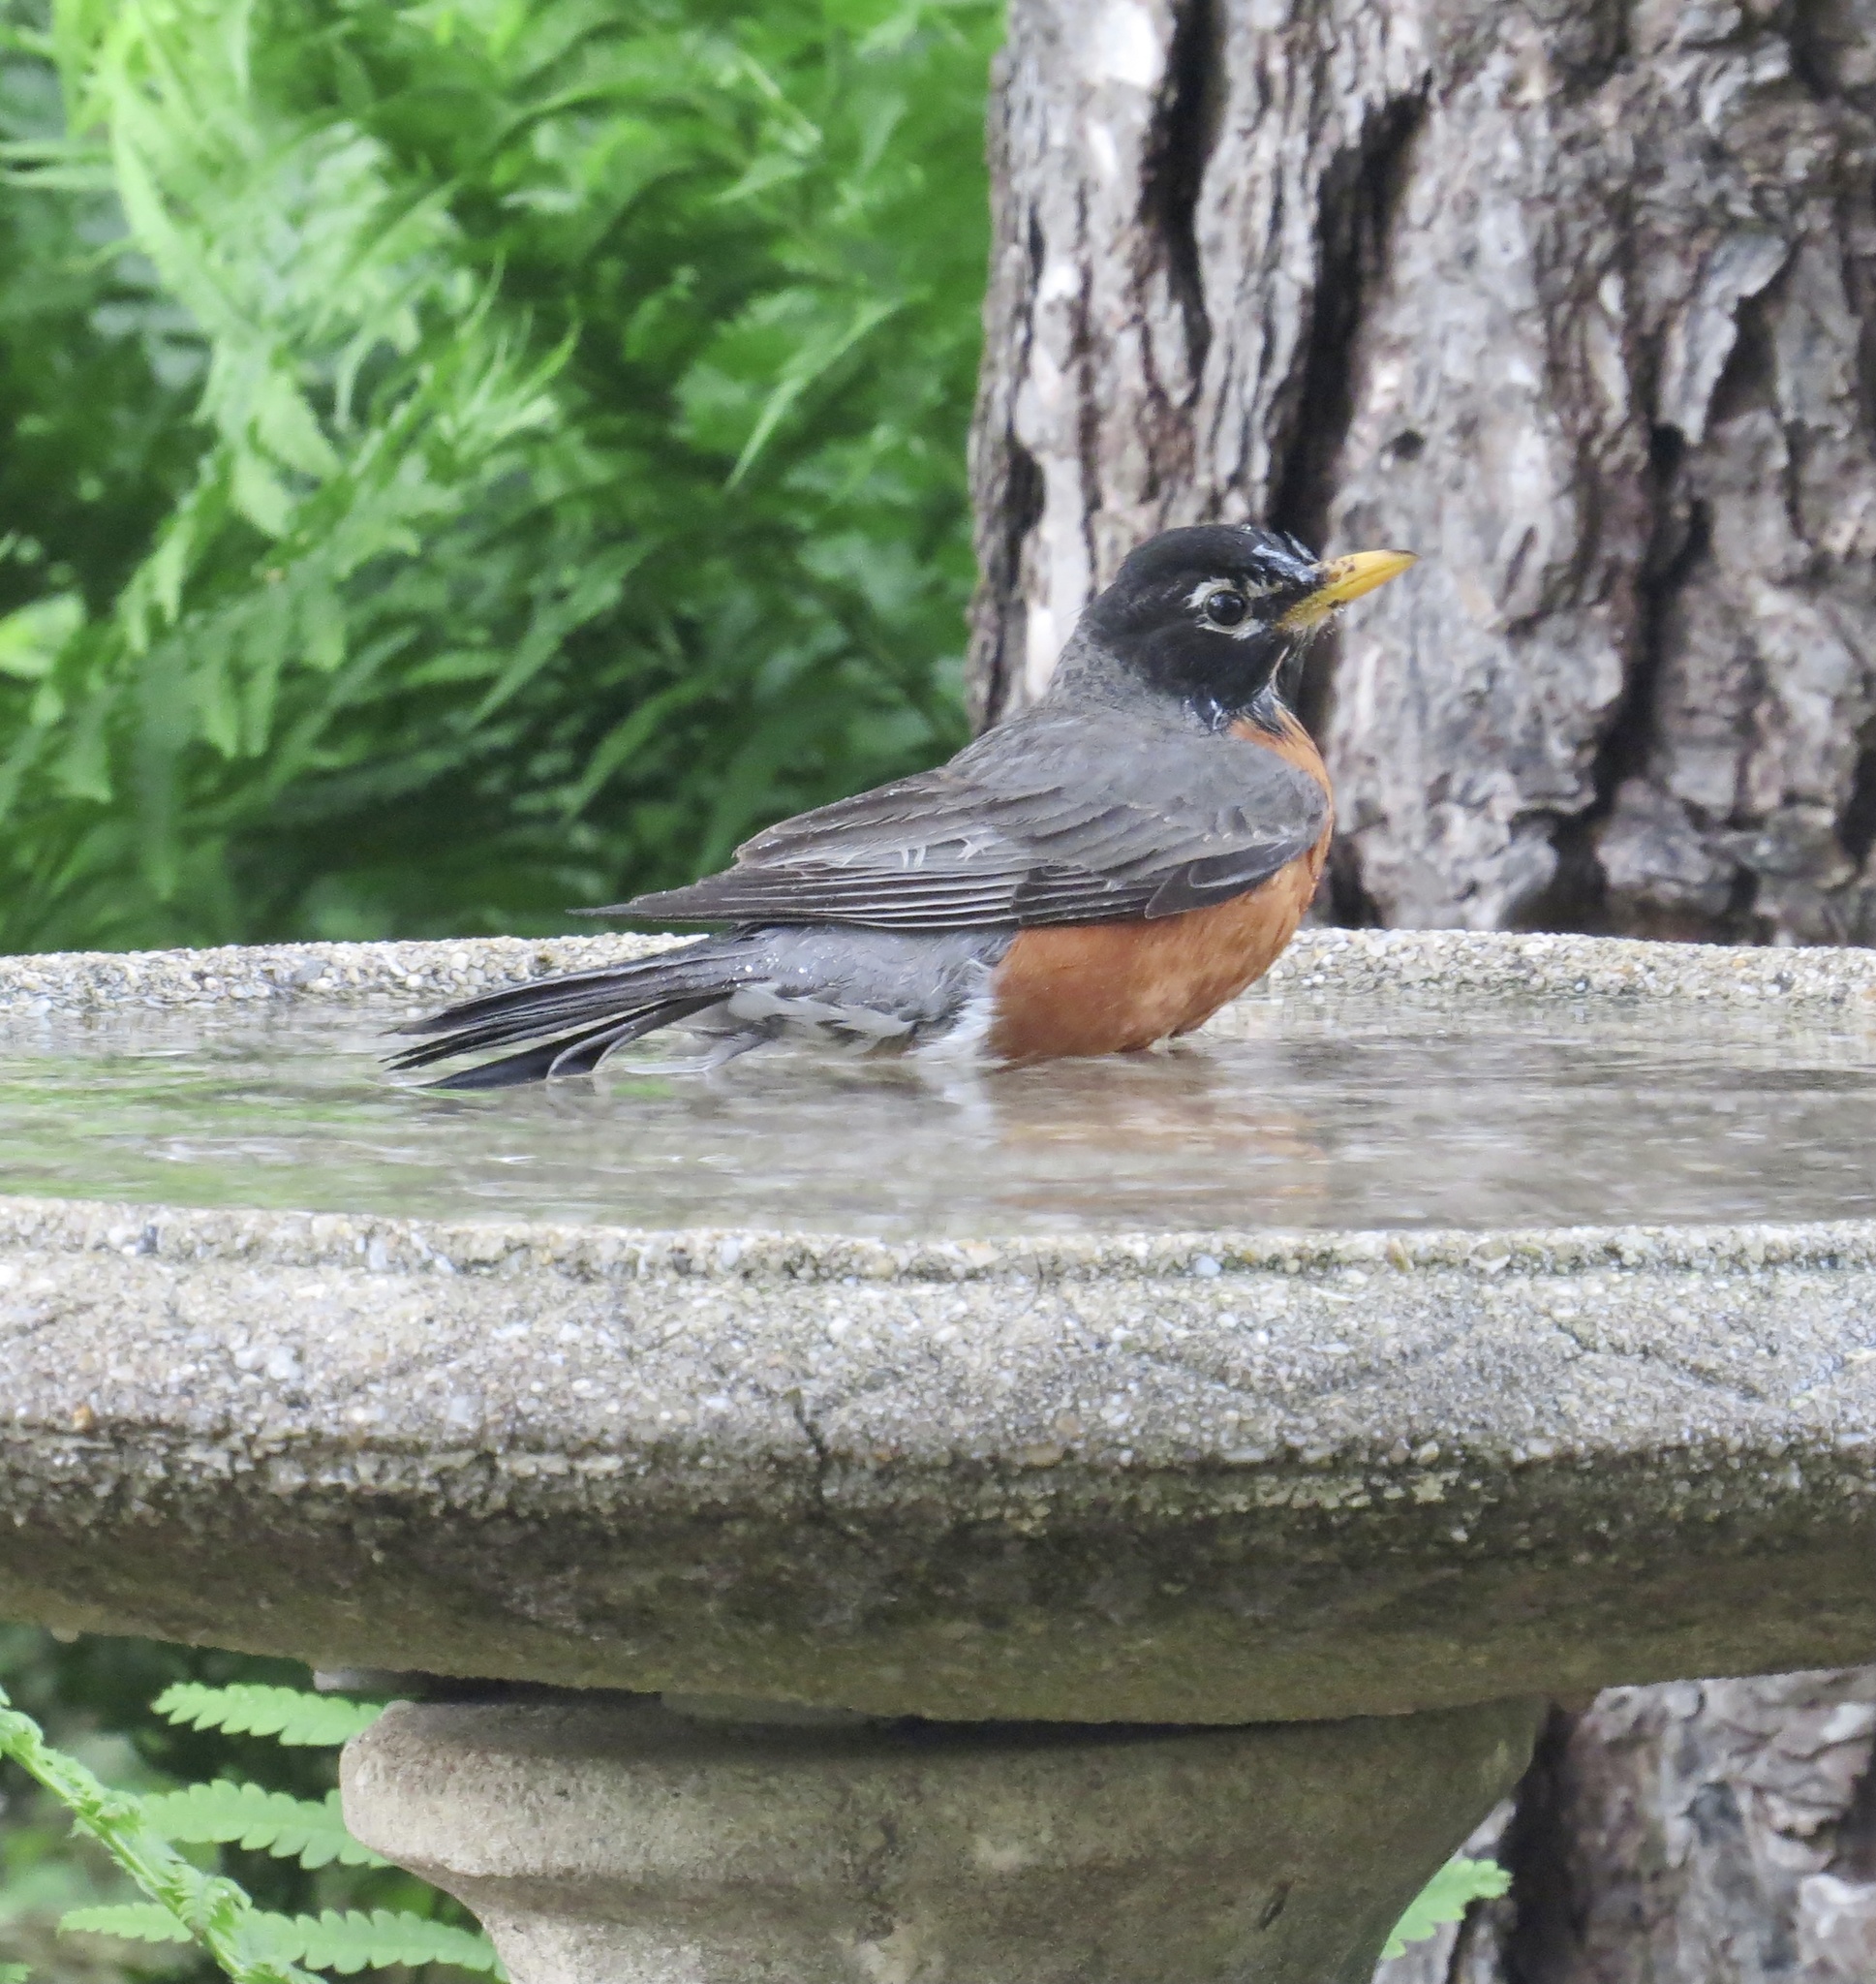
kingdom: Animalia
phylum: Chordata
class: Aves
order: Passeriformes
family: Turdidae
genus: Turdus
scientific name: Turdus migratorius
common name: American robin
